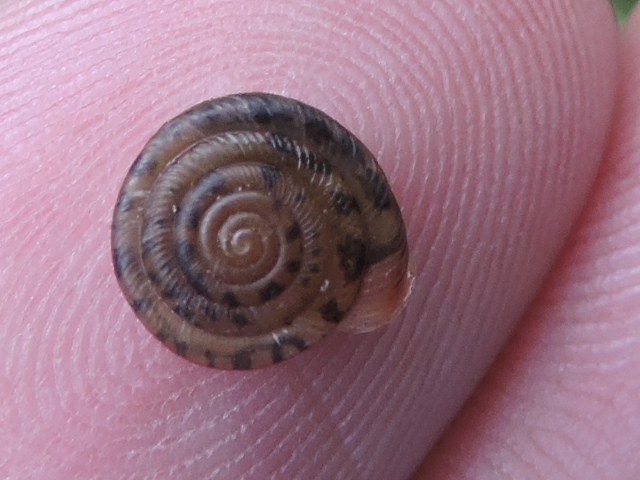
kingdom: Animalia
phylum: Mollusca
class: Gastropoda
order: Stylommatophora
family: Polygyridae
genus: Polygyra
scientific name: Polygyra cereolus
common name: Southern flatcone snail
